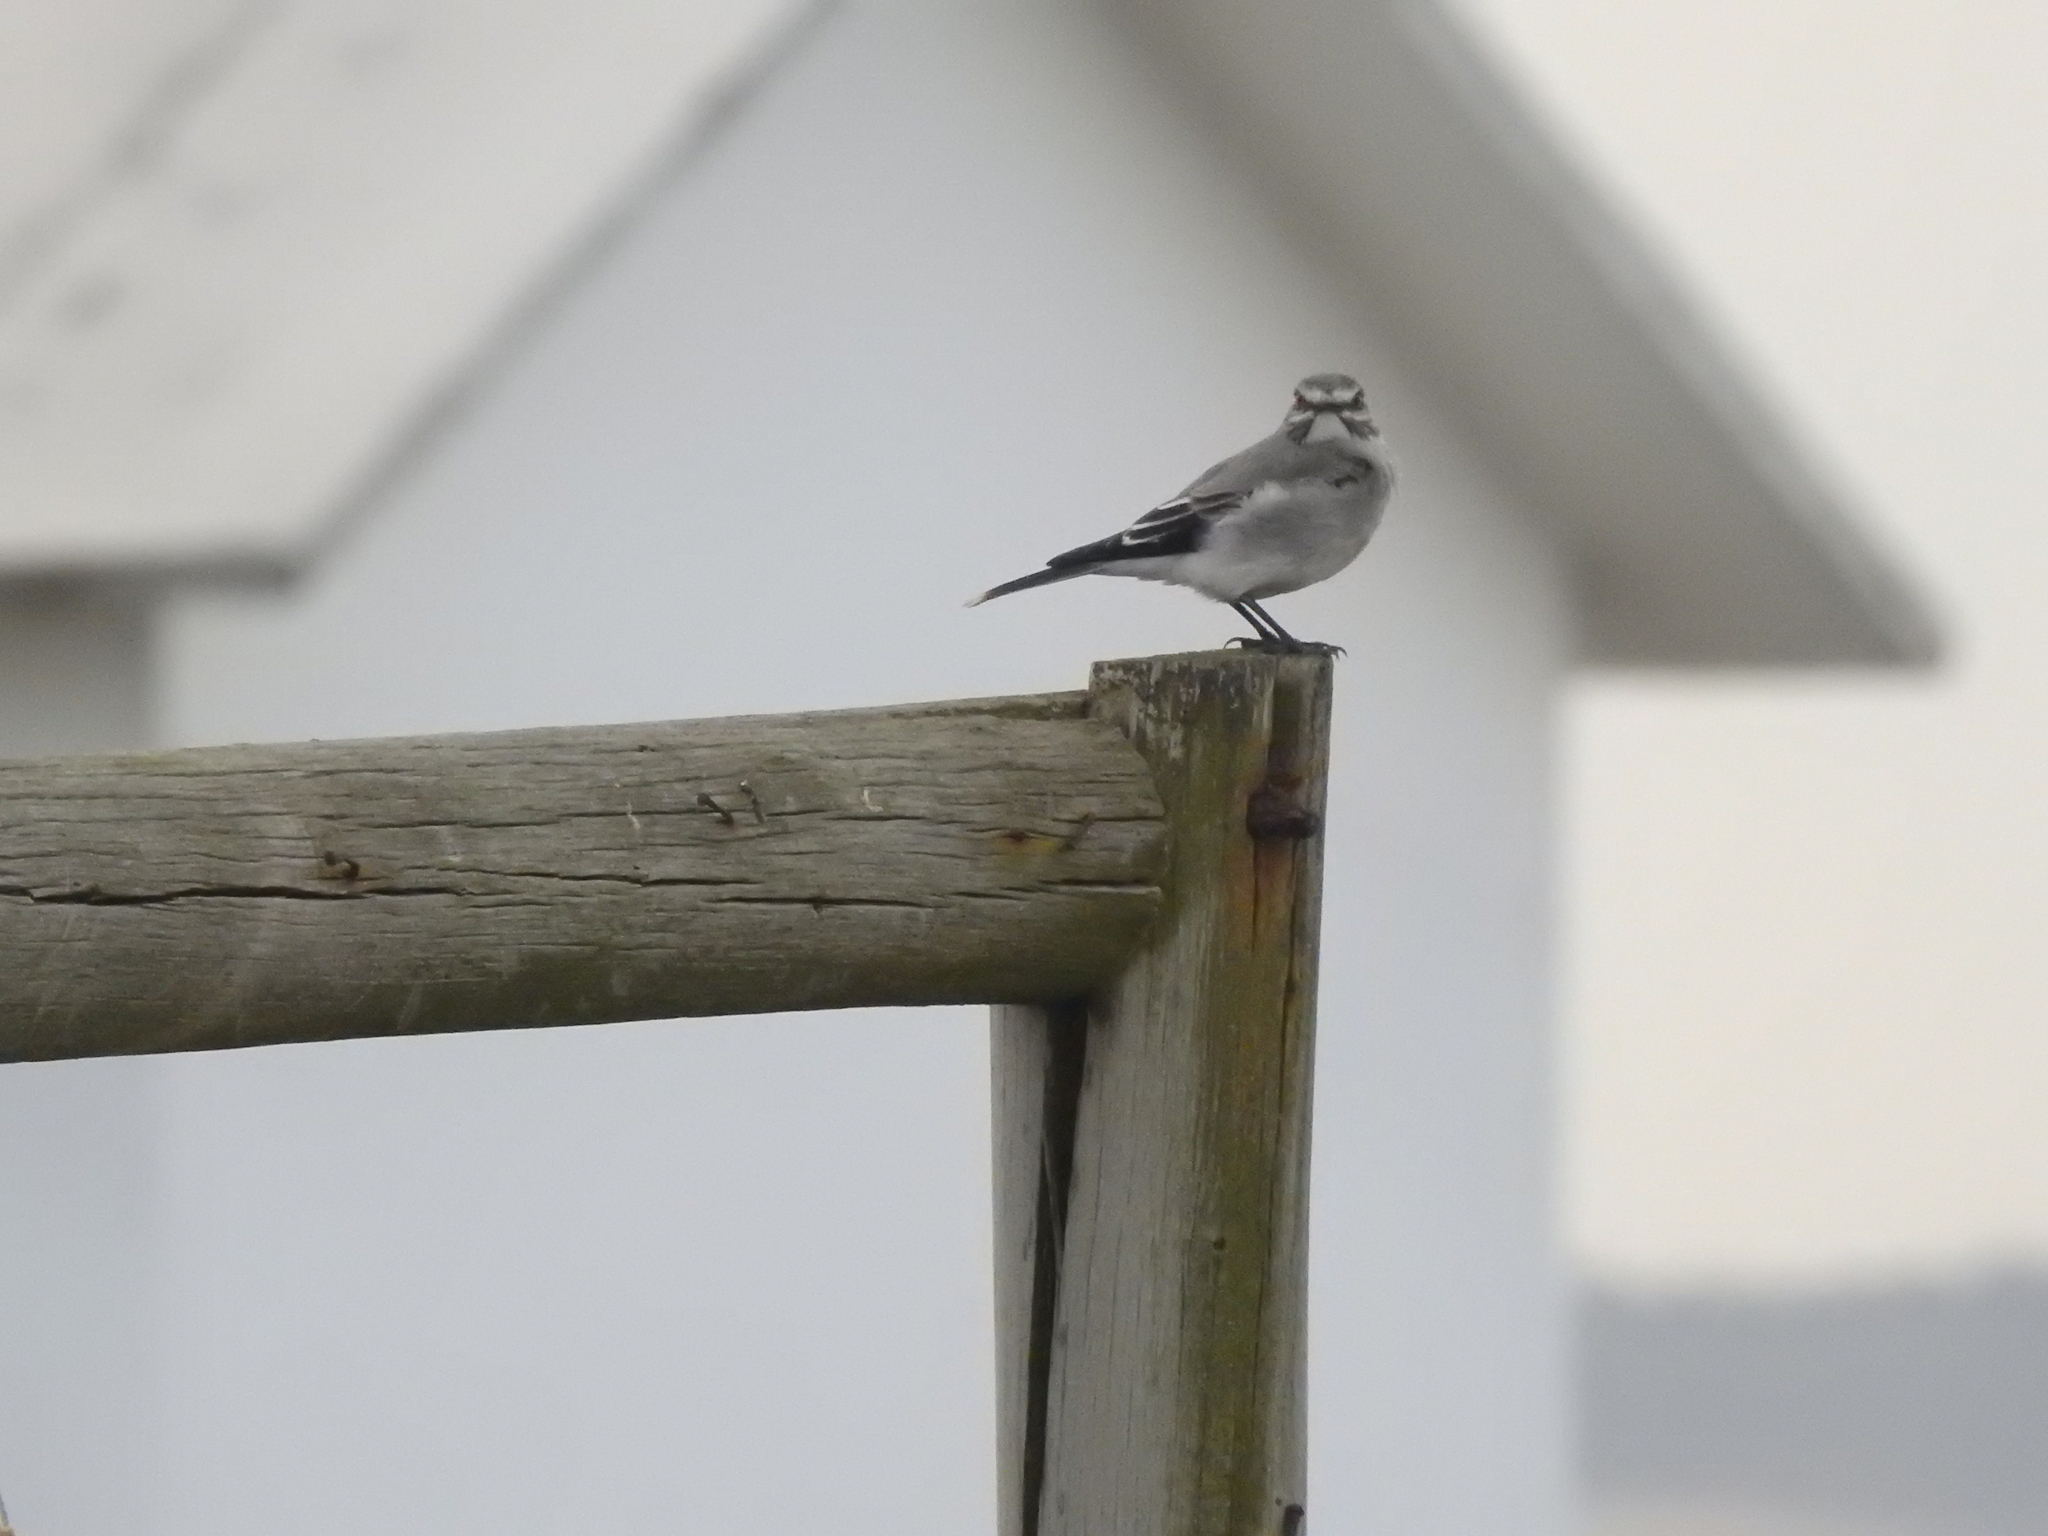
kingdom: Animalia
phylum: Chordata
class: Aves
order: Passeriformes
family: Tyrannidae
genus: Xolmis
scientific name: Xolmis cinereus
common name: Grey monjita
